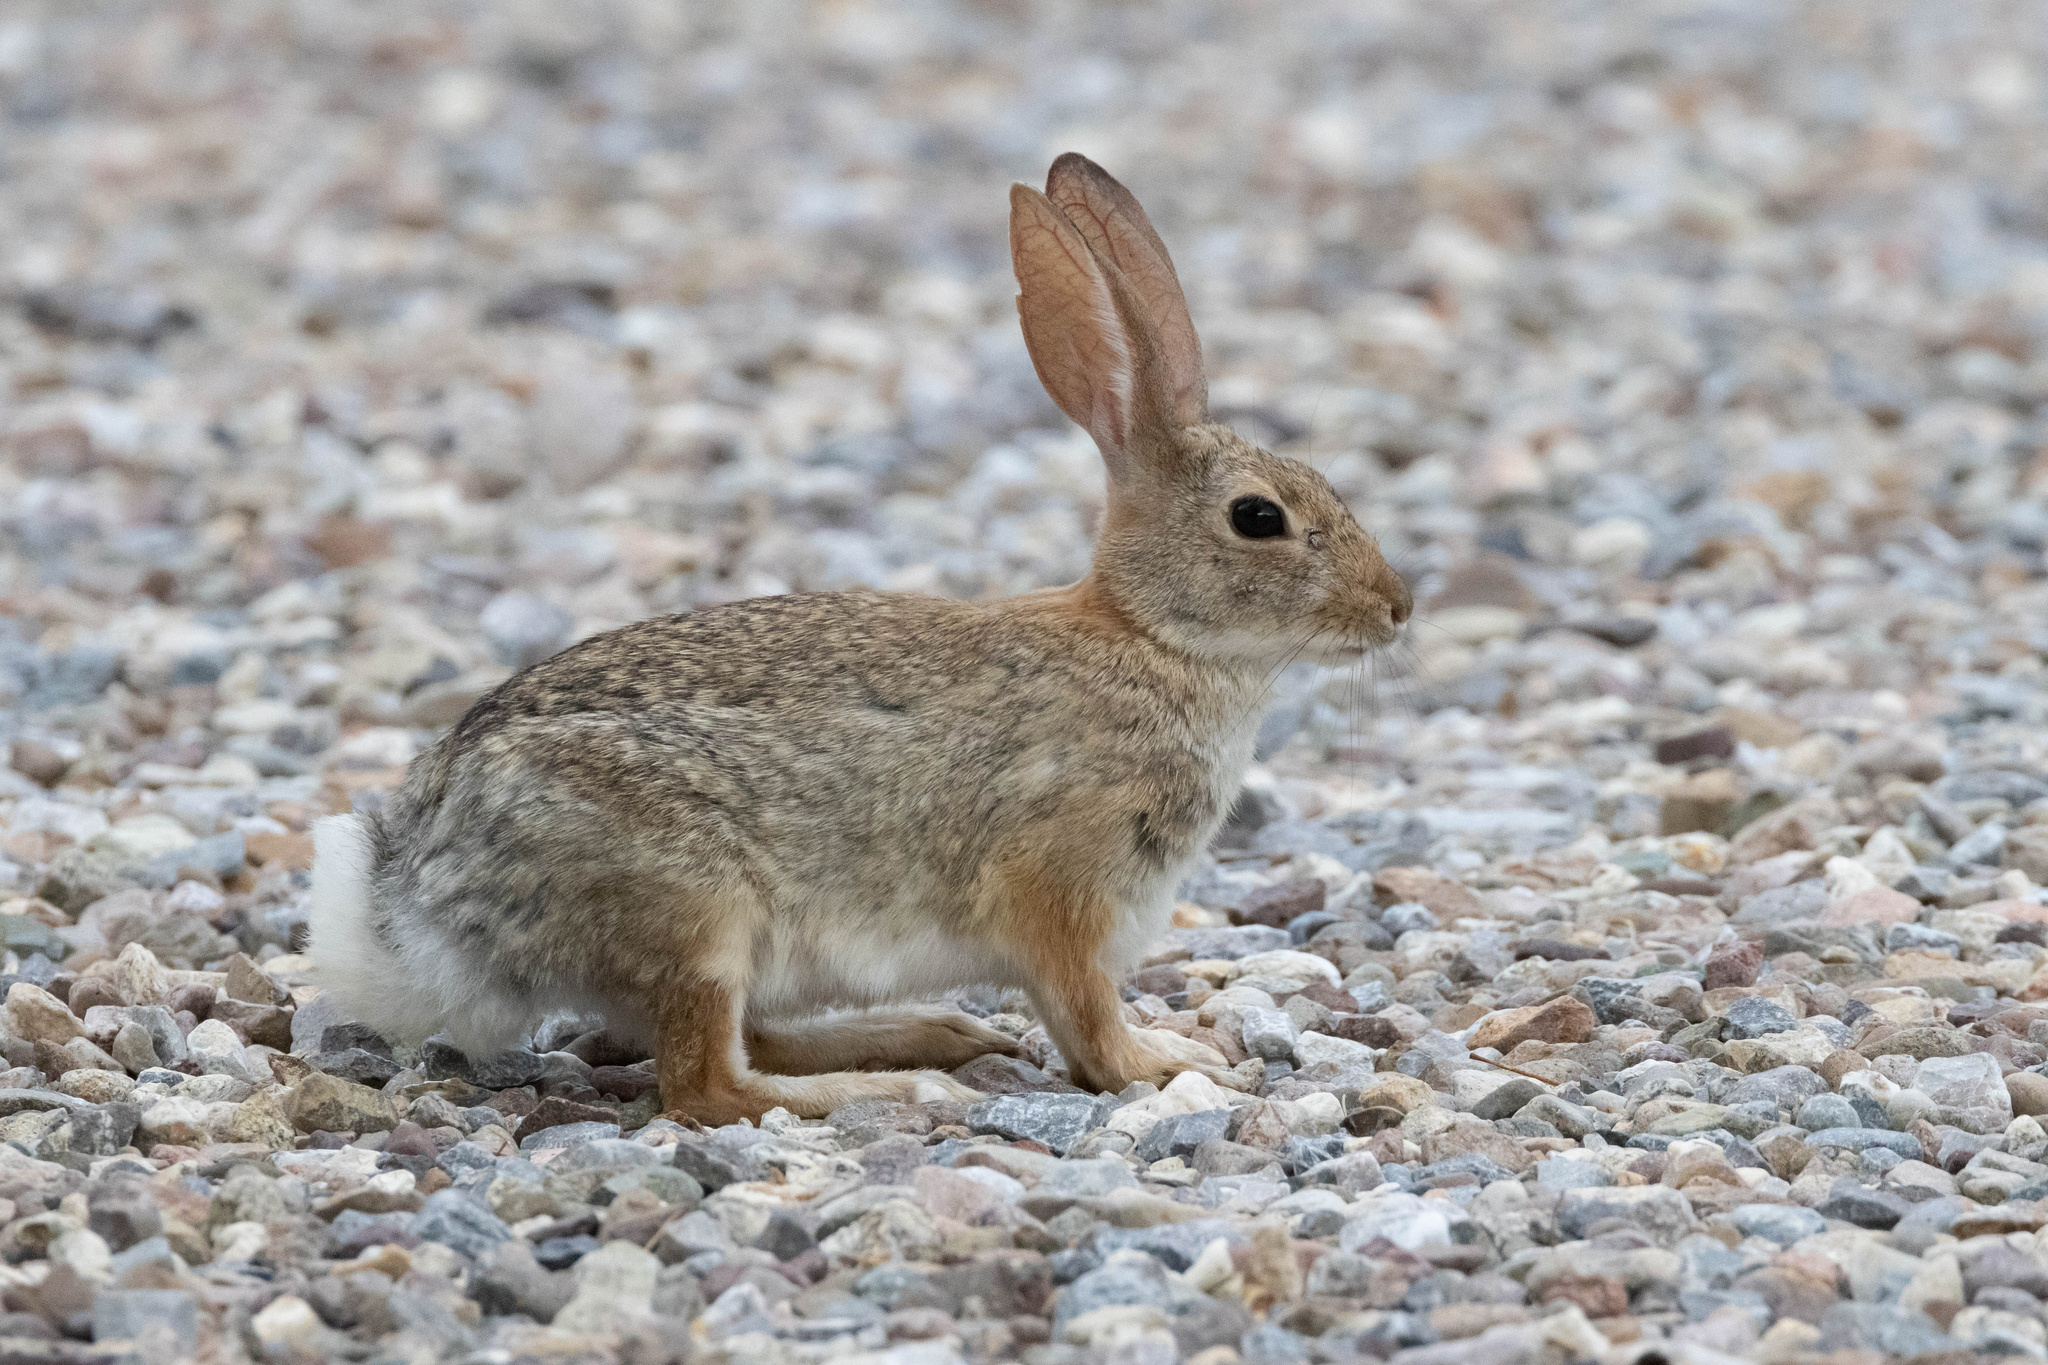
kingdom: Animalia
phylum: Chordata
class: Mammalia
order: Lagomorpha
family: Leporidae
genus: Sylvilagus
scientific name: Sylvilagus audubonii
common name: Desert cottontail
